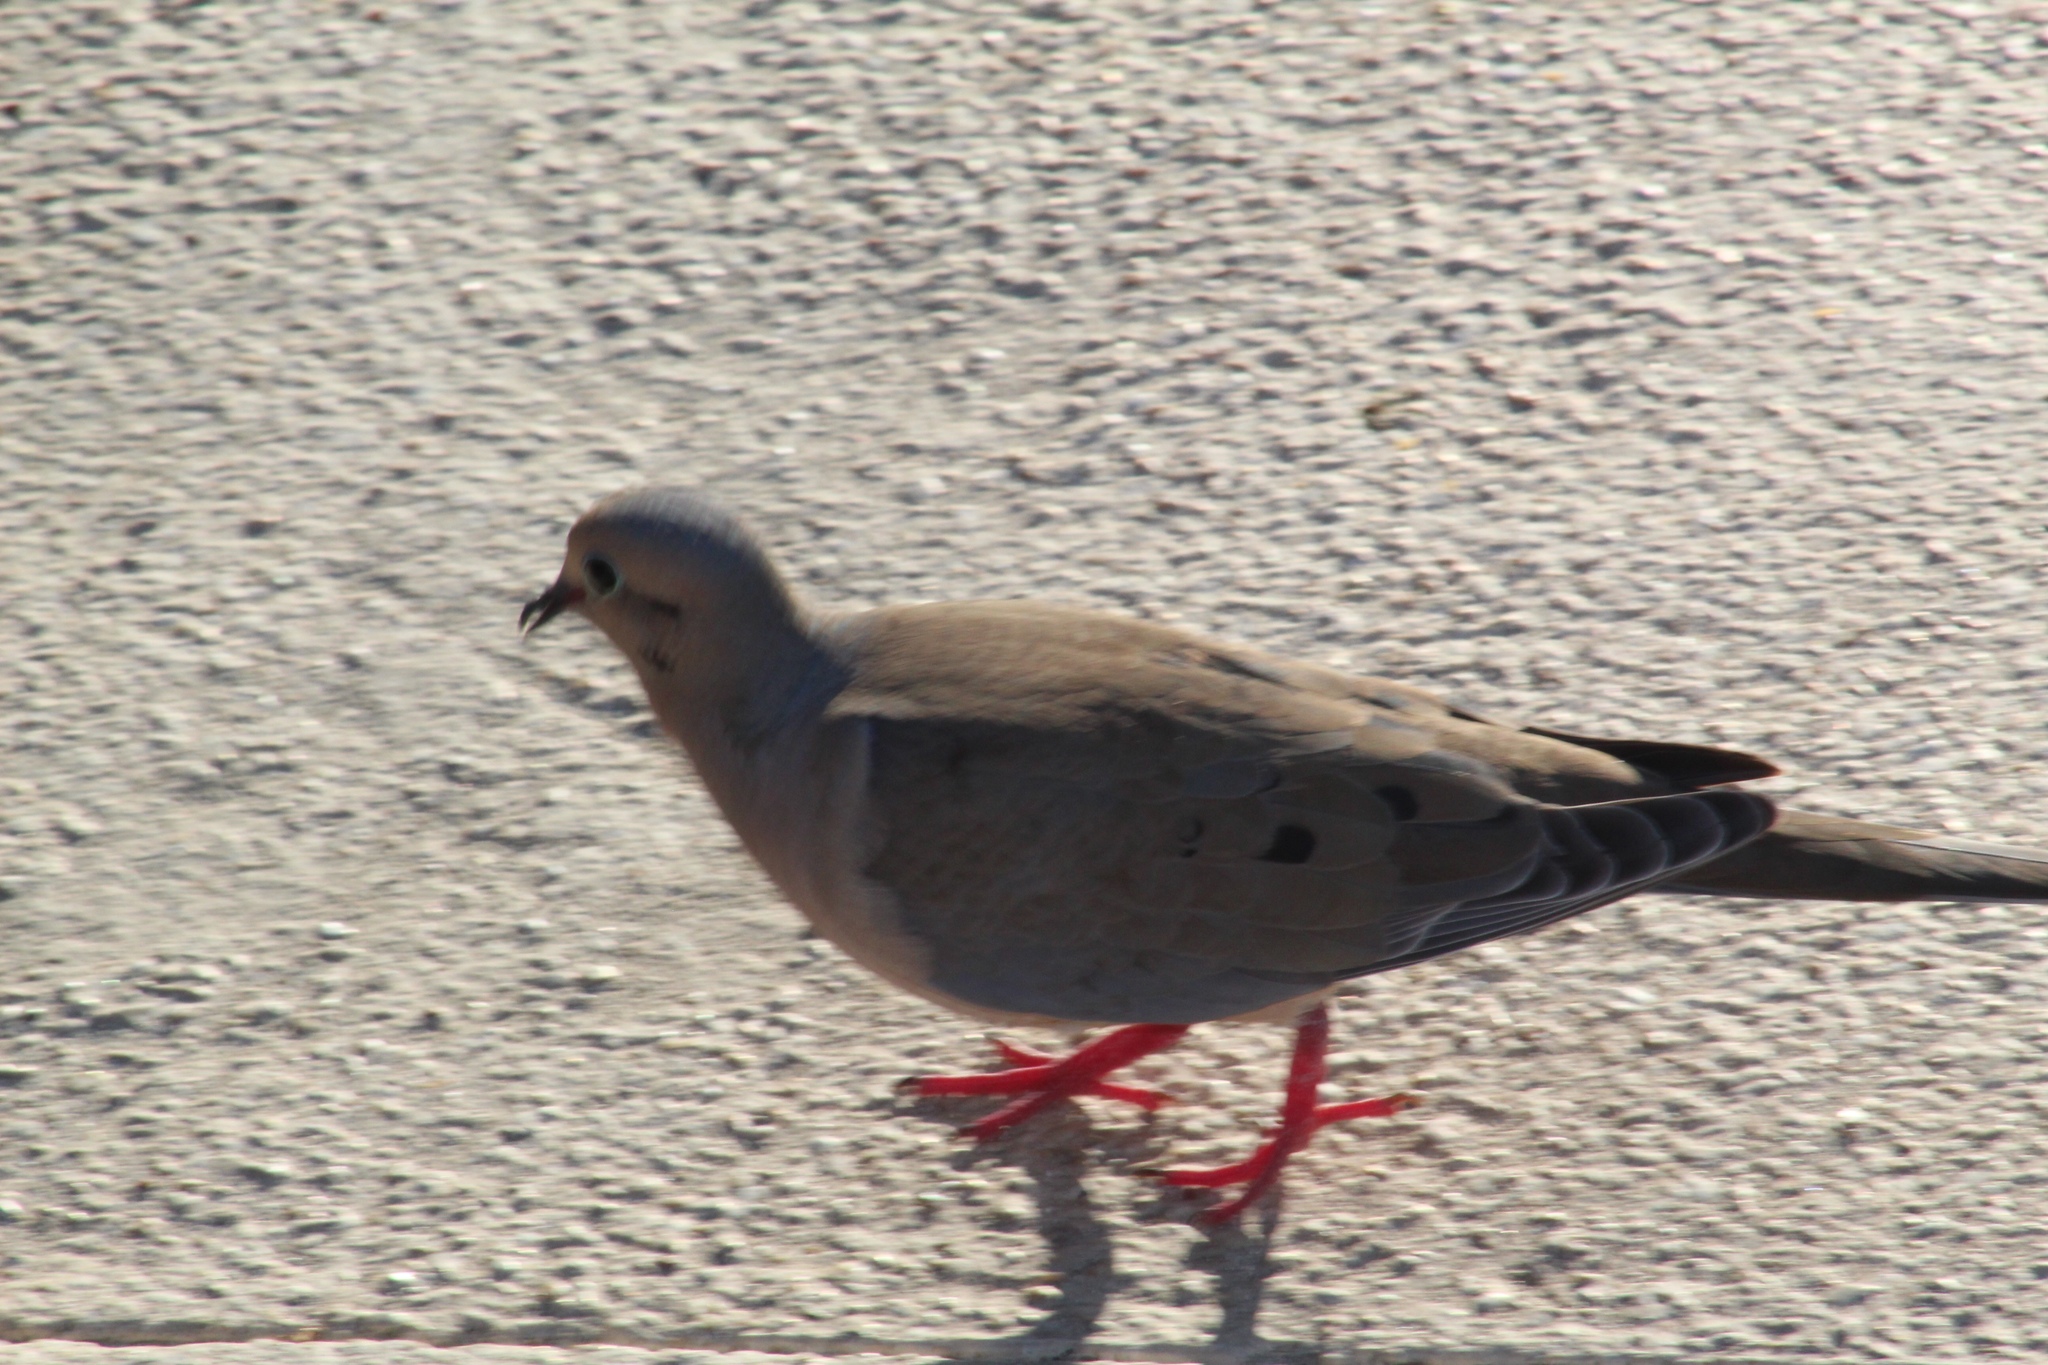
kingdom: Animalia
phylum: Chordata
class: Aves
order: Columbiformes
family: Columbidae
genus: Zenaida
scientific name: Zenaida aurita
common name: Zenaida dove
